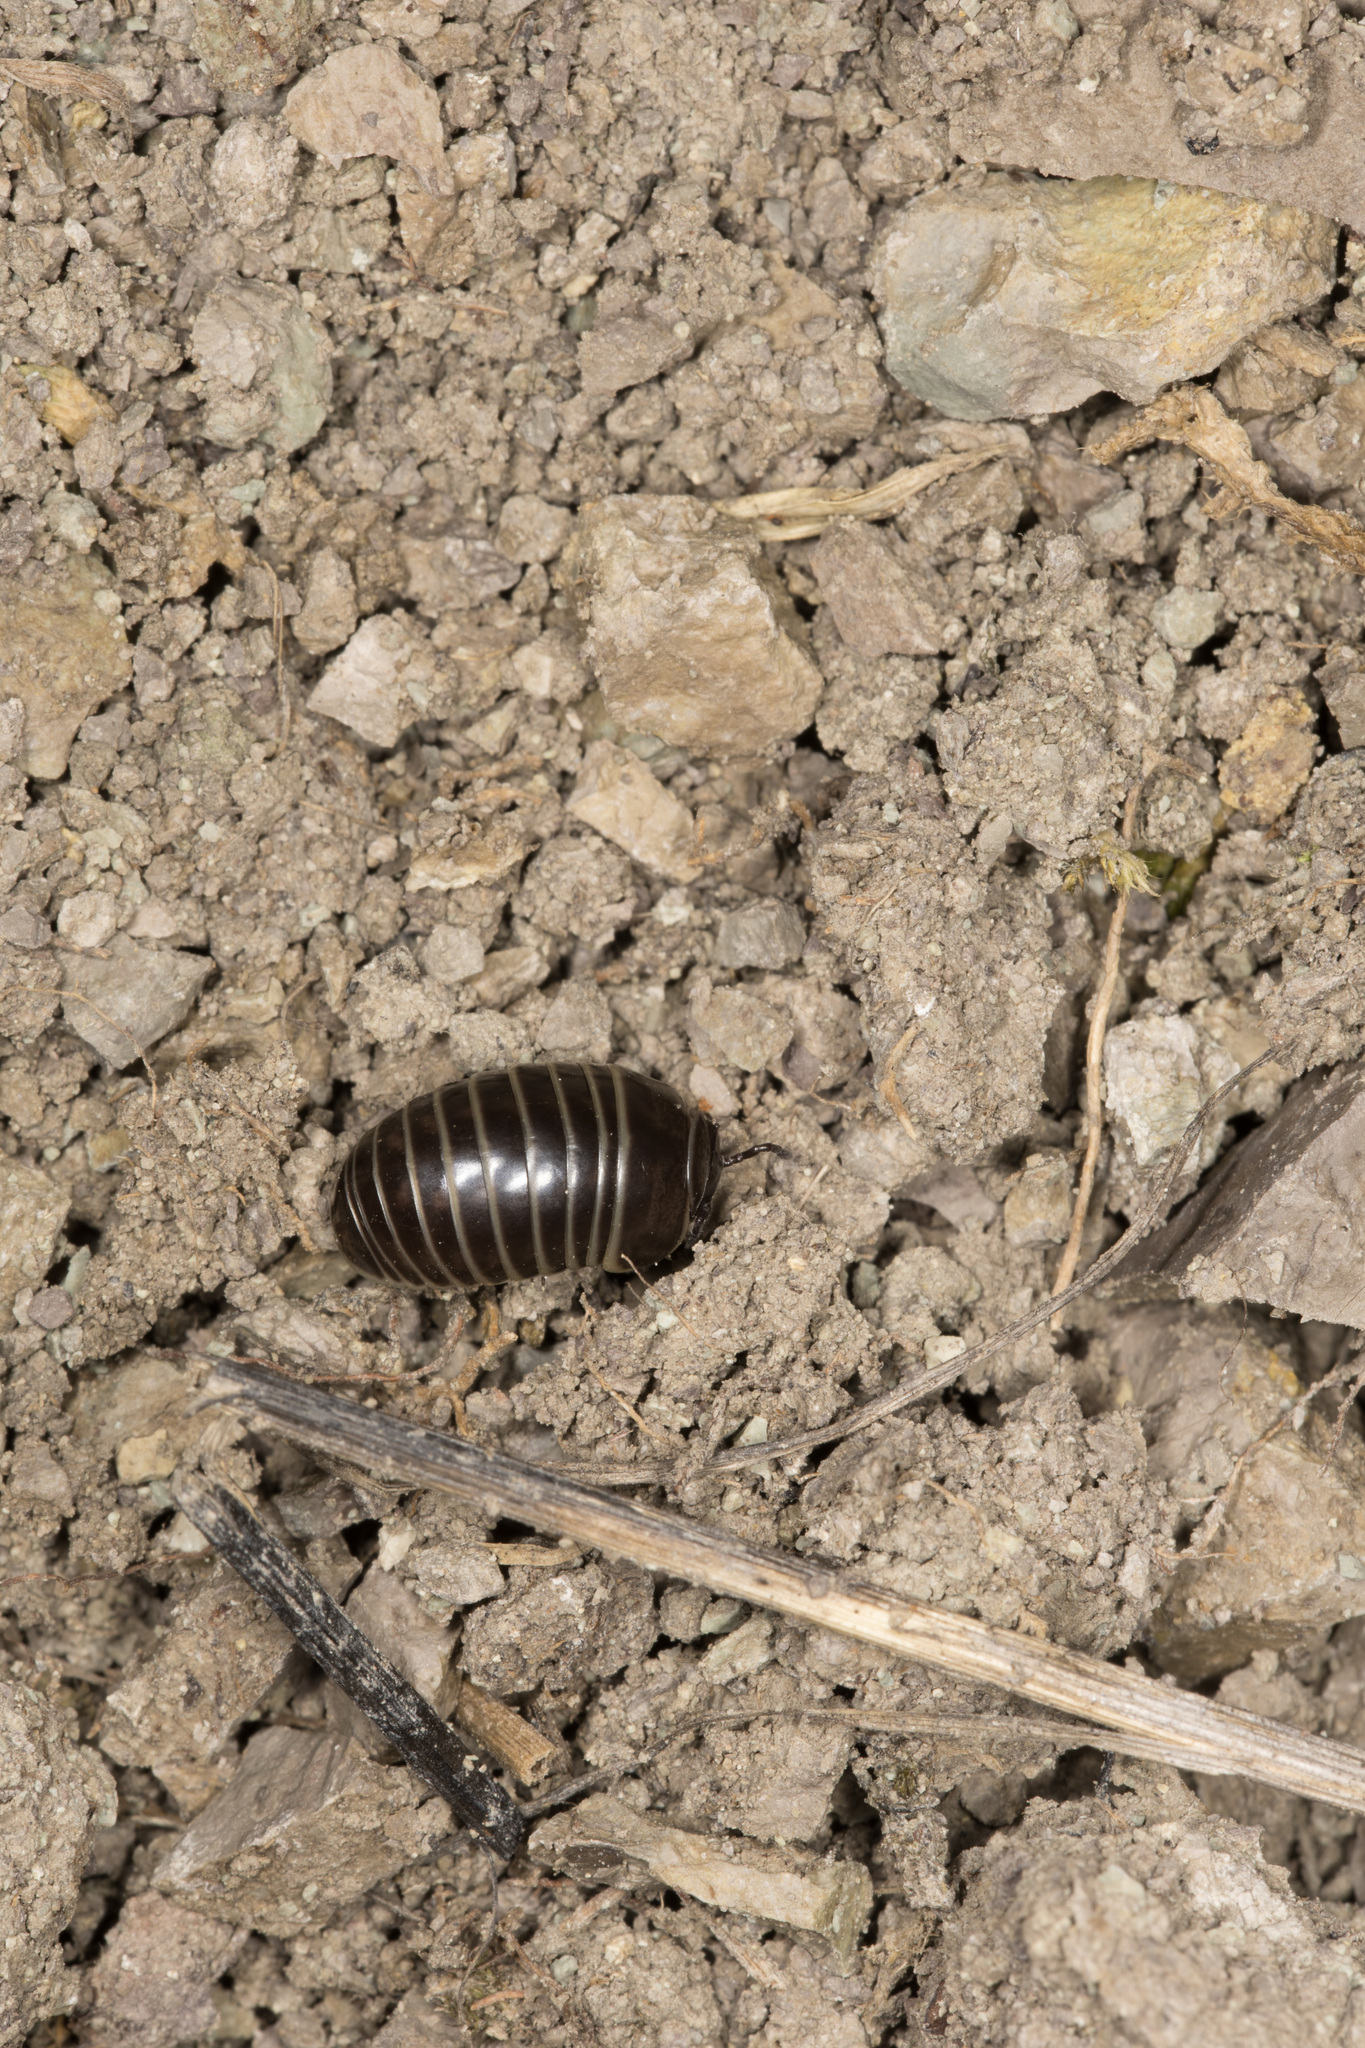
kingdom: Animalia
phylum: Arthropoda
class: Diplopoda
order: Glomerida
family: Glomeridae
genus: Glomeris
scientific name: Glomeris marginata
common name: Bordered pill millipede
